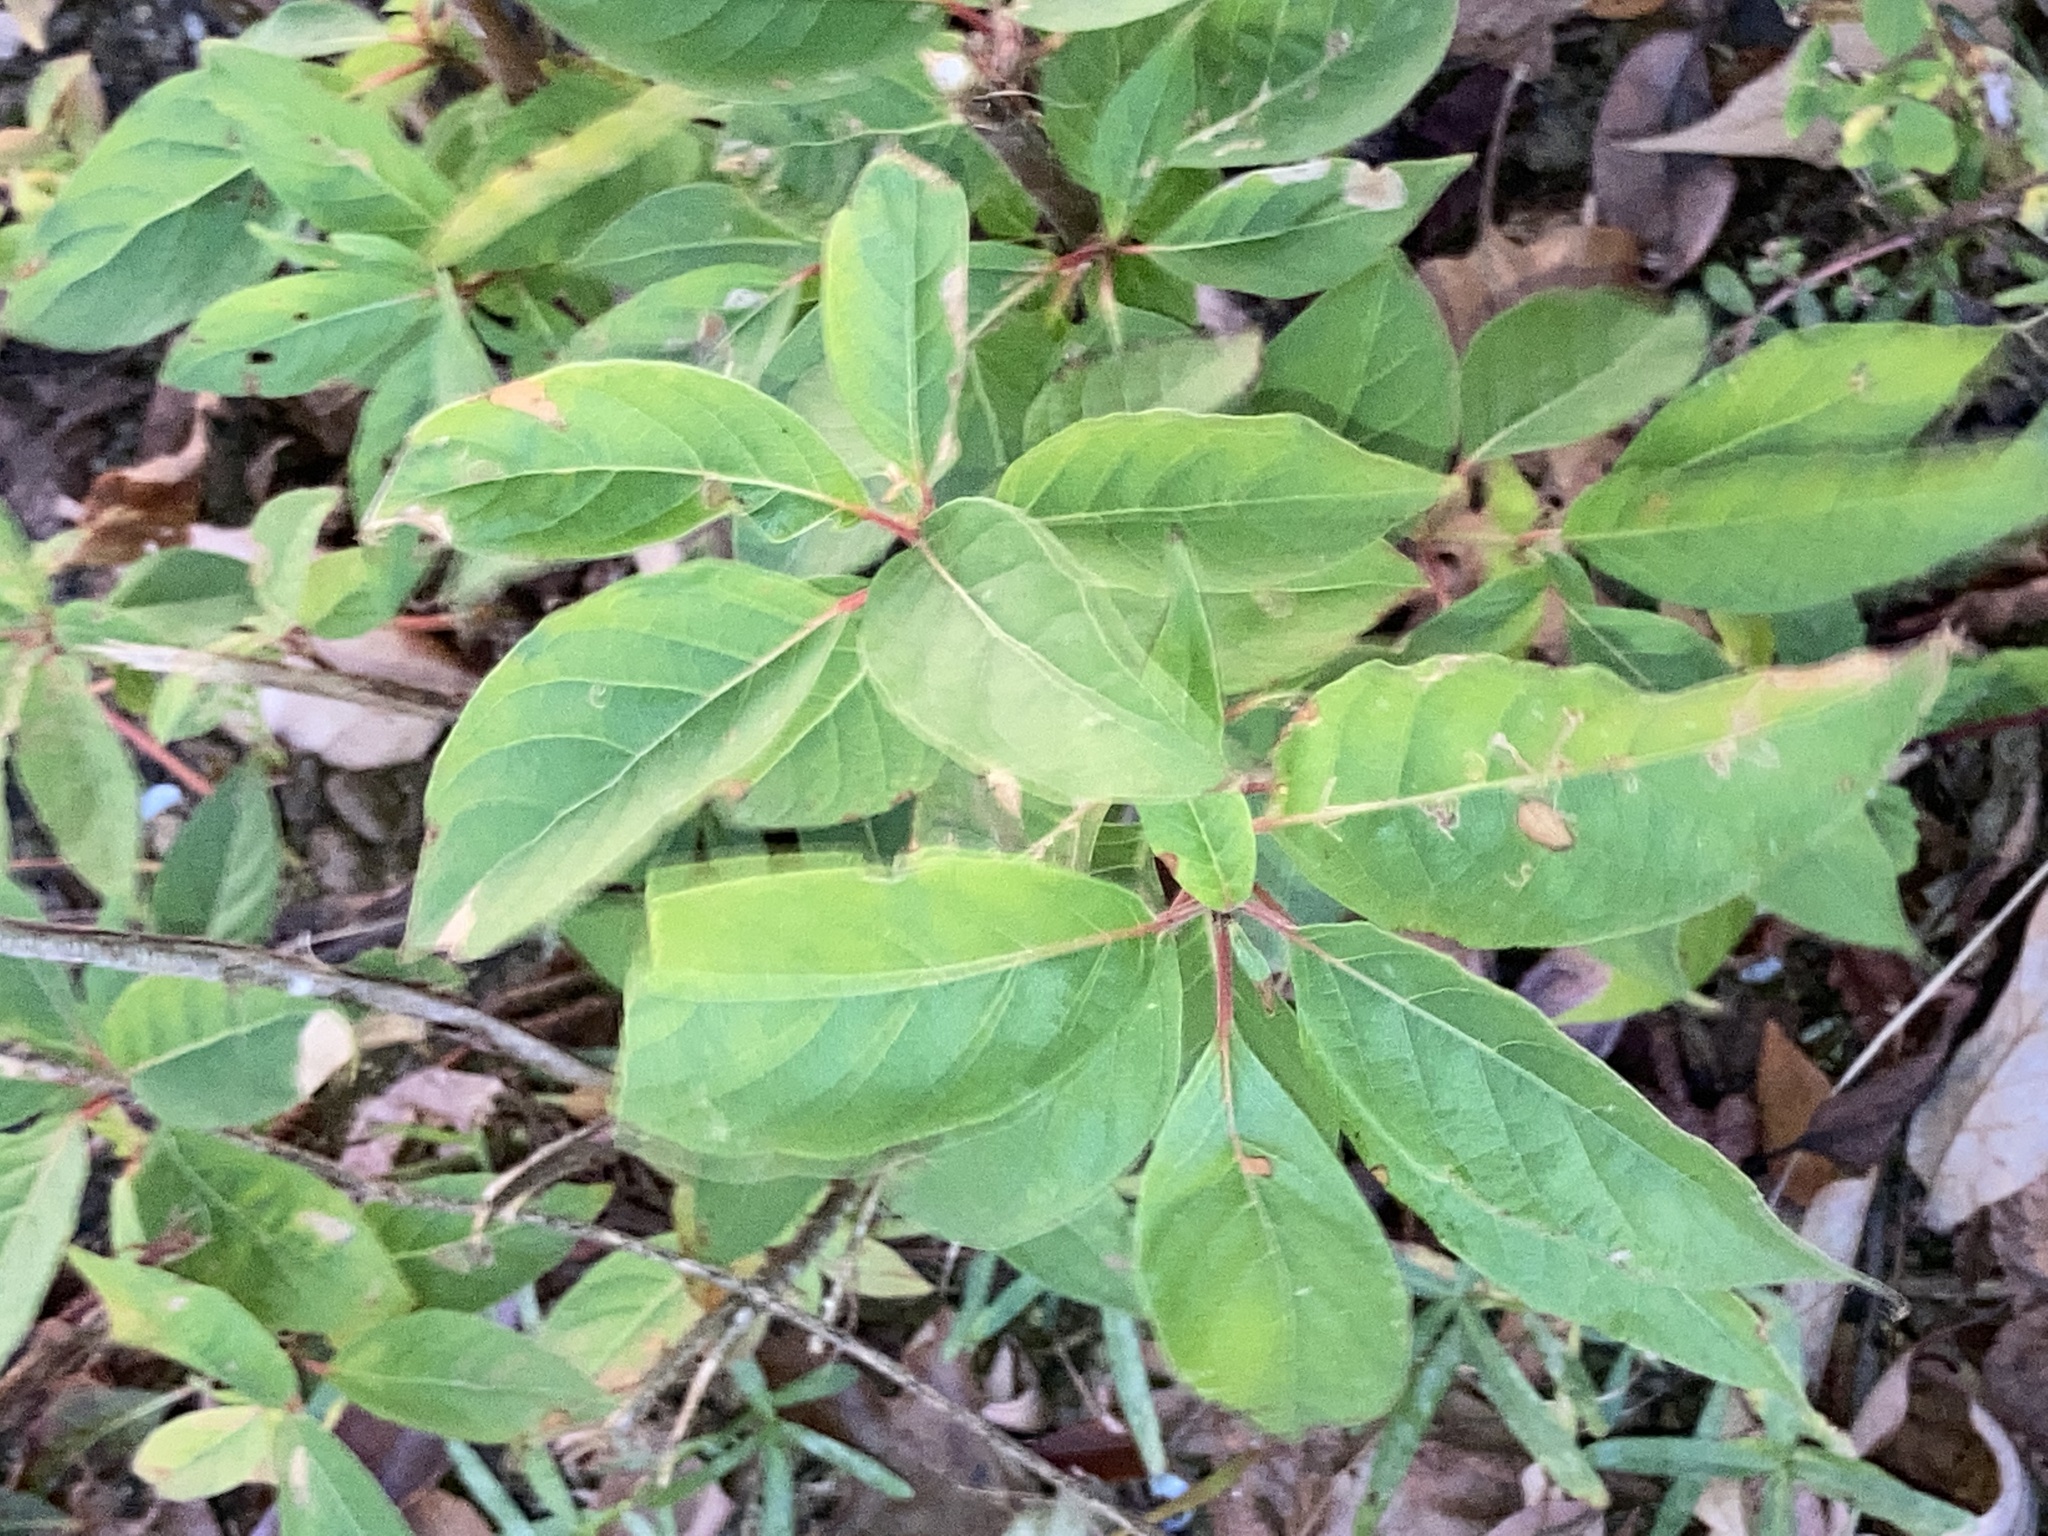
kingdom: Plantae
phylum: Tracheophyta
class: Magnoliopsida
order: Gentianales
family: Rubiaceae
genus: Cephalanthus
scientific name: Cephalanthus occidentalis
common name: Button-willow
